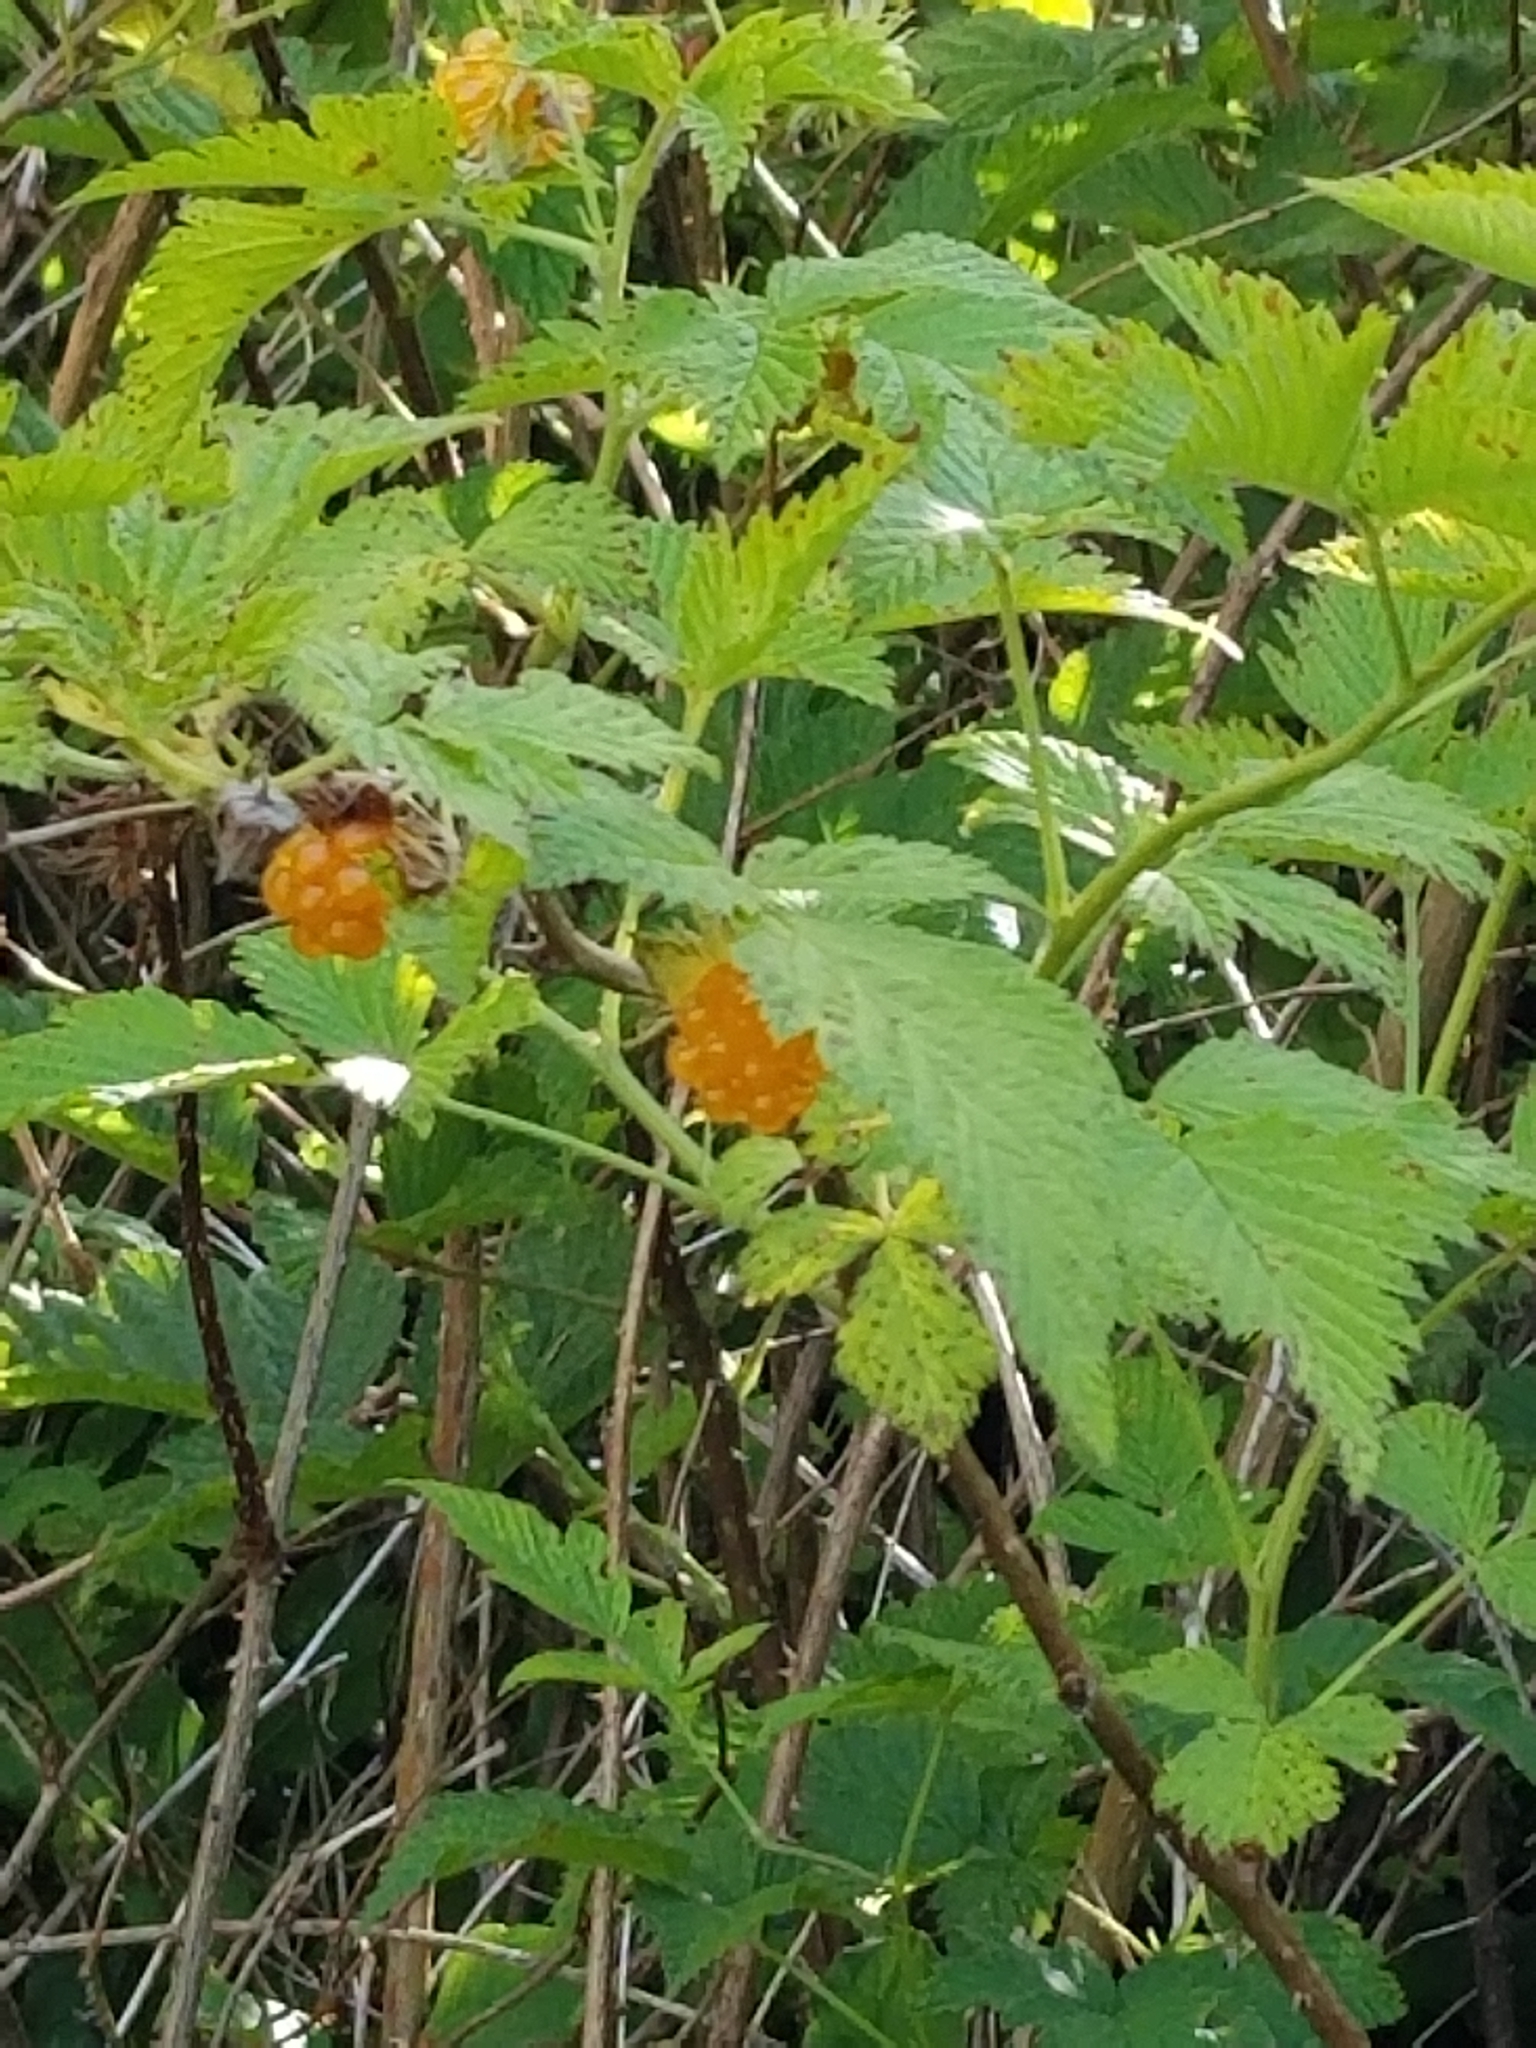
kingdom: Plantae
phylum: Tracheophyta
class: Magnoliopsida
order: Rosales
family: Rosaceae
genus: Rubus
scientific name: Rubus spectabilis
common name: Salmonberry
